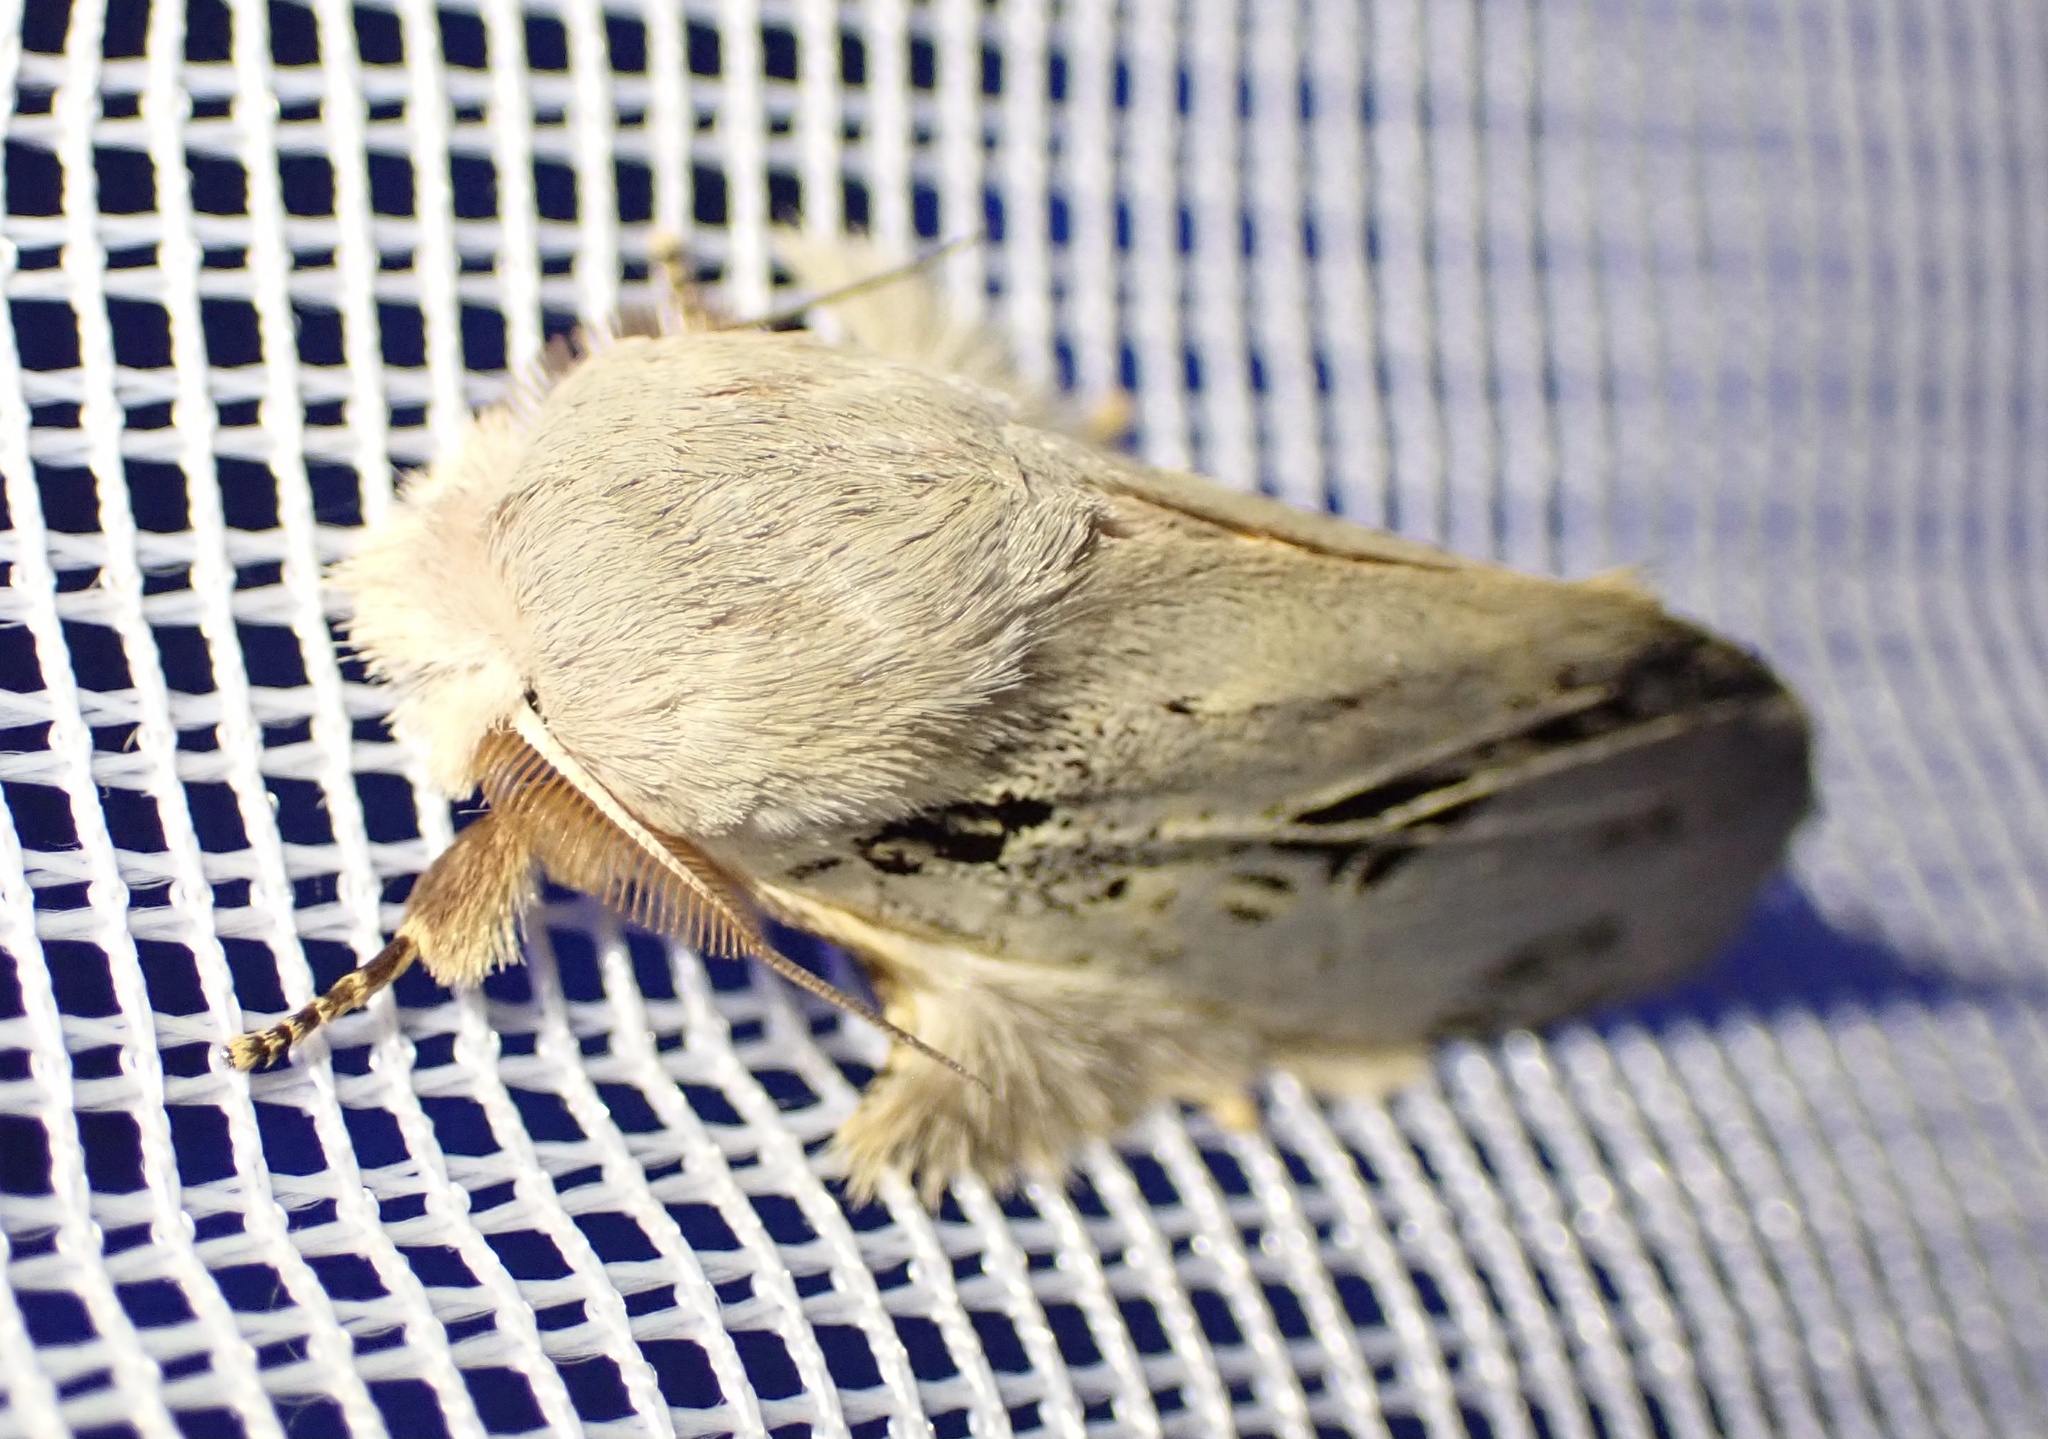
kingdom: Animalia
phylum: Arthropoda
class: Insecta
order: Lepidoptera
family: Notodontidae
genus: Tricholoba
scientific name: Tricholoba atriclathrata
